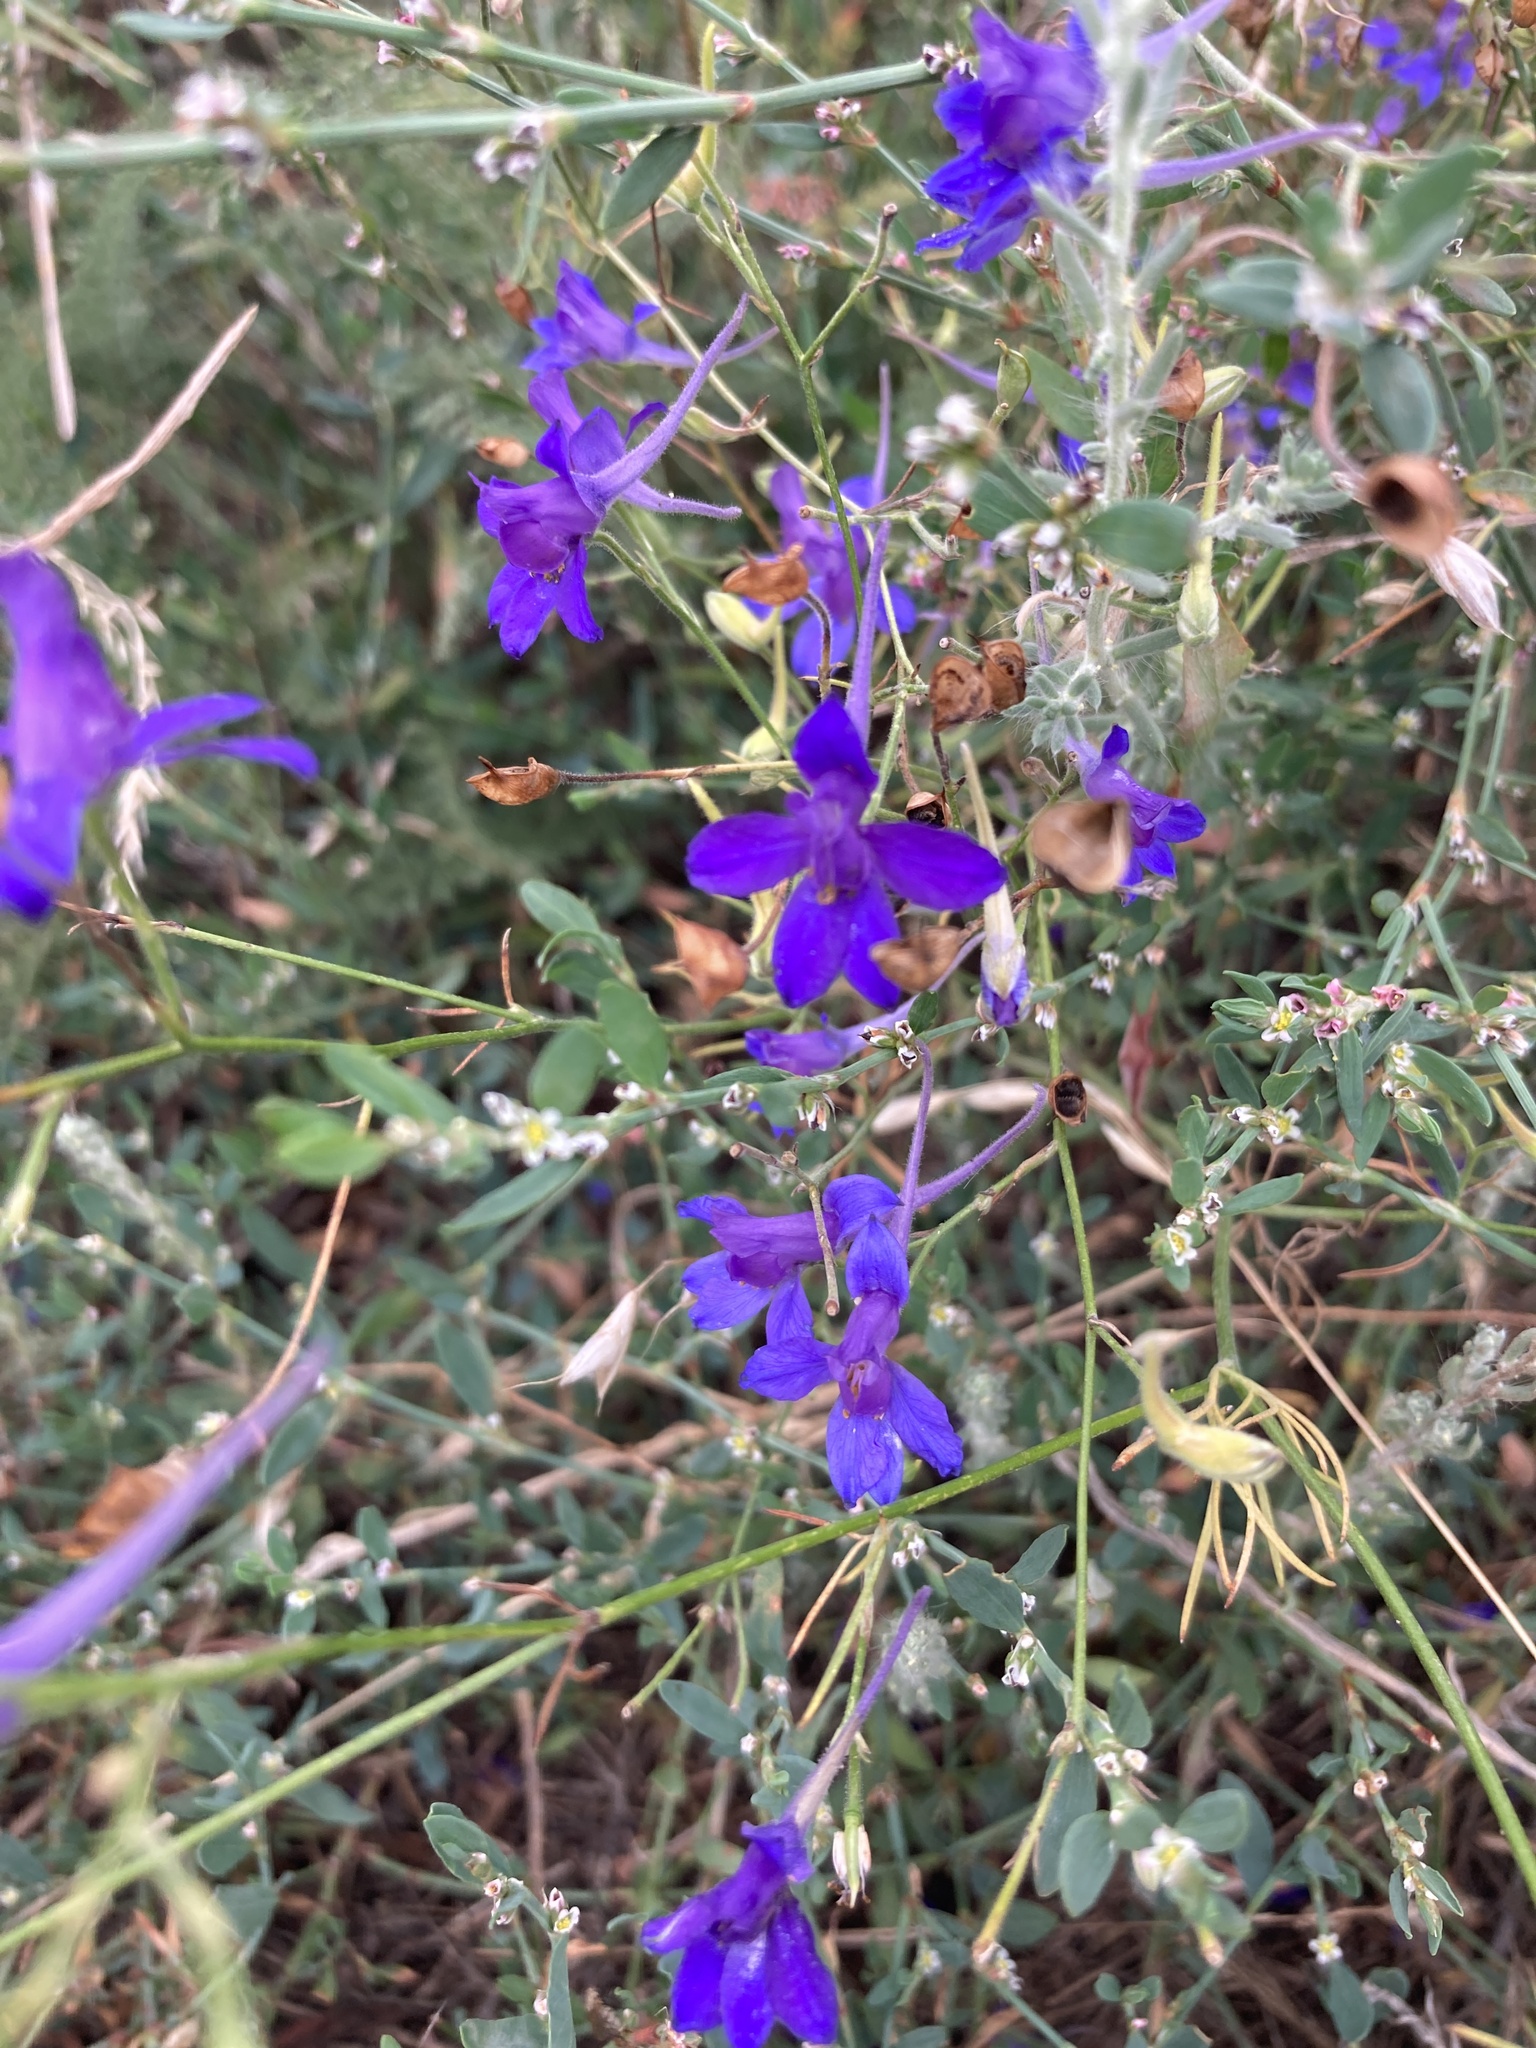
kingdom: Plantae
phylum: Tracheophyta
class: Magnoliopsida
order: Ranunculales
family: Ranunculaceae
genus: Delphinium
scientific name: Delphinium consolida
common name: Branching larkspur
